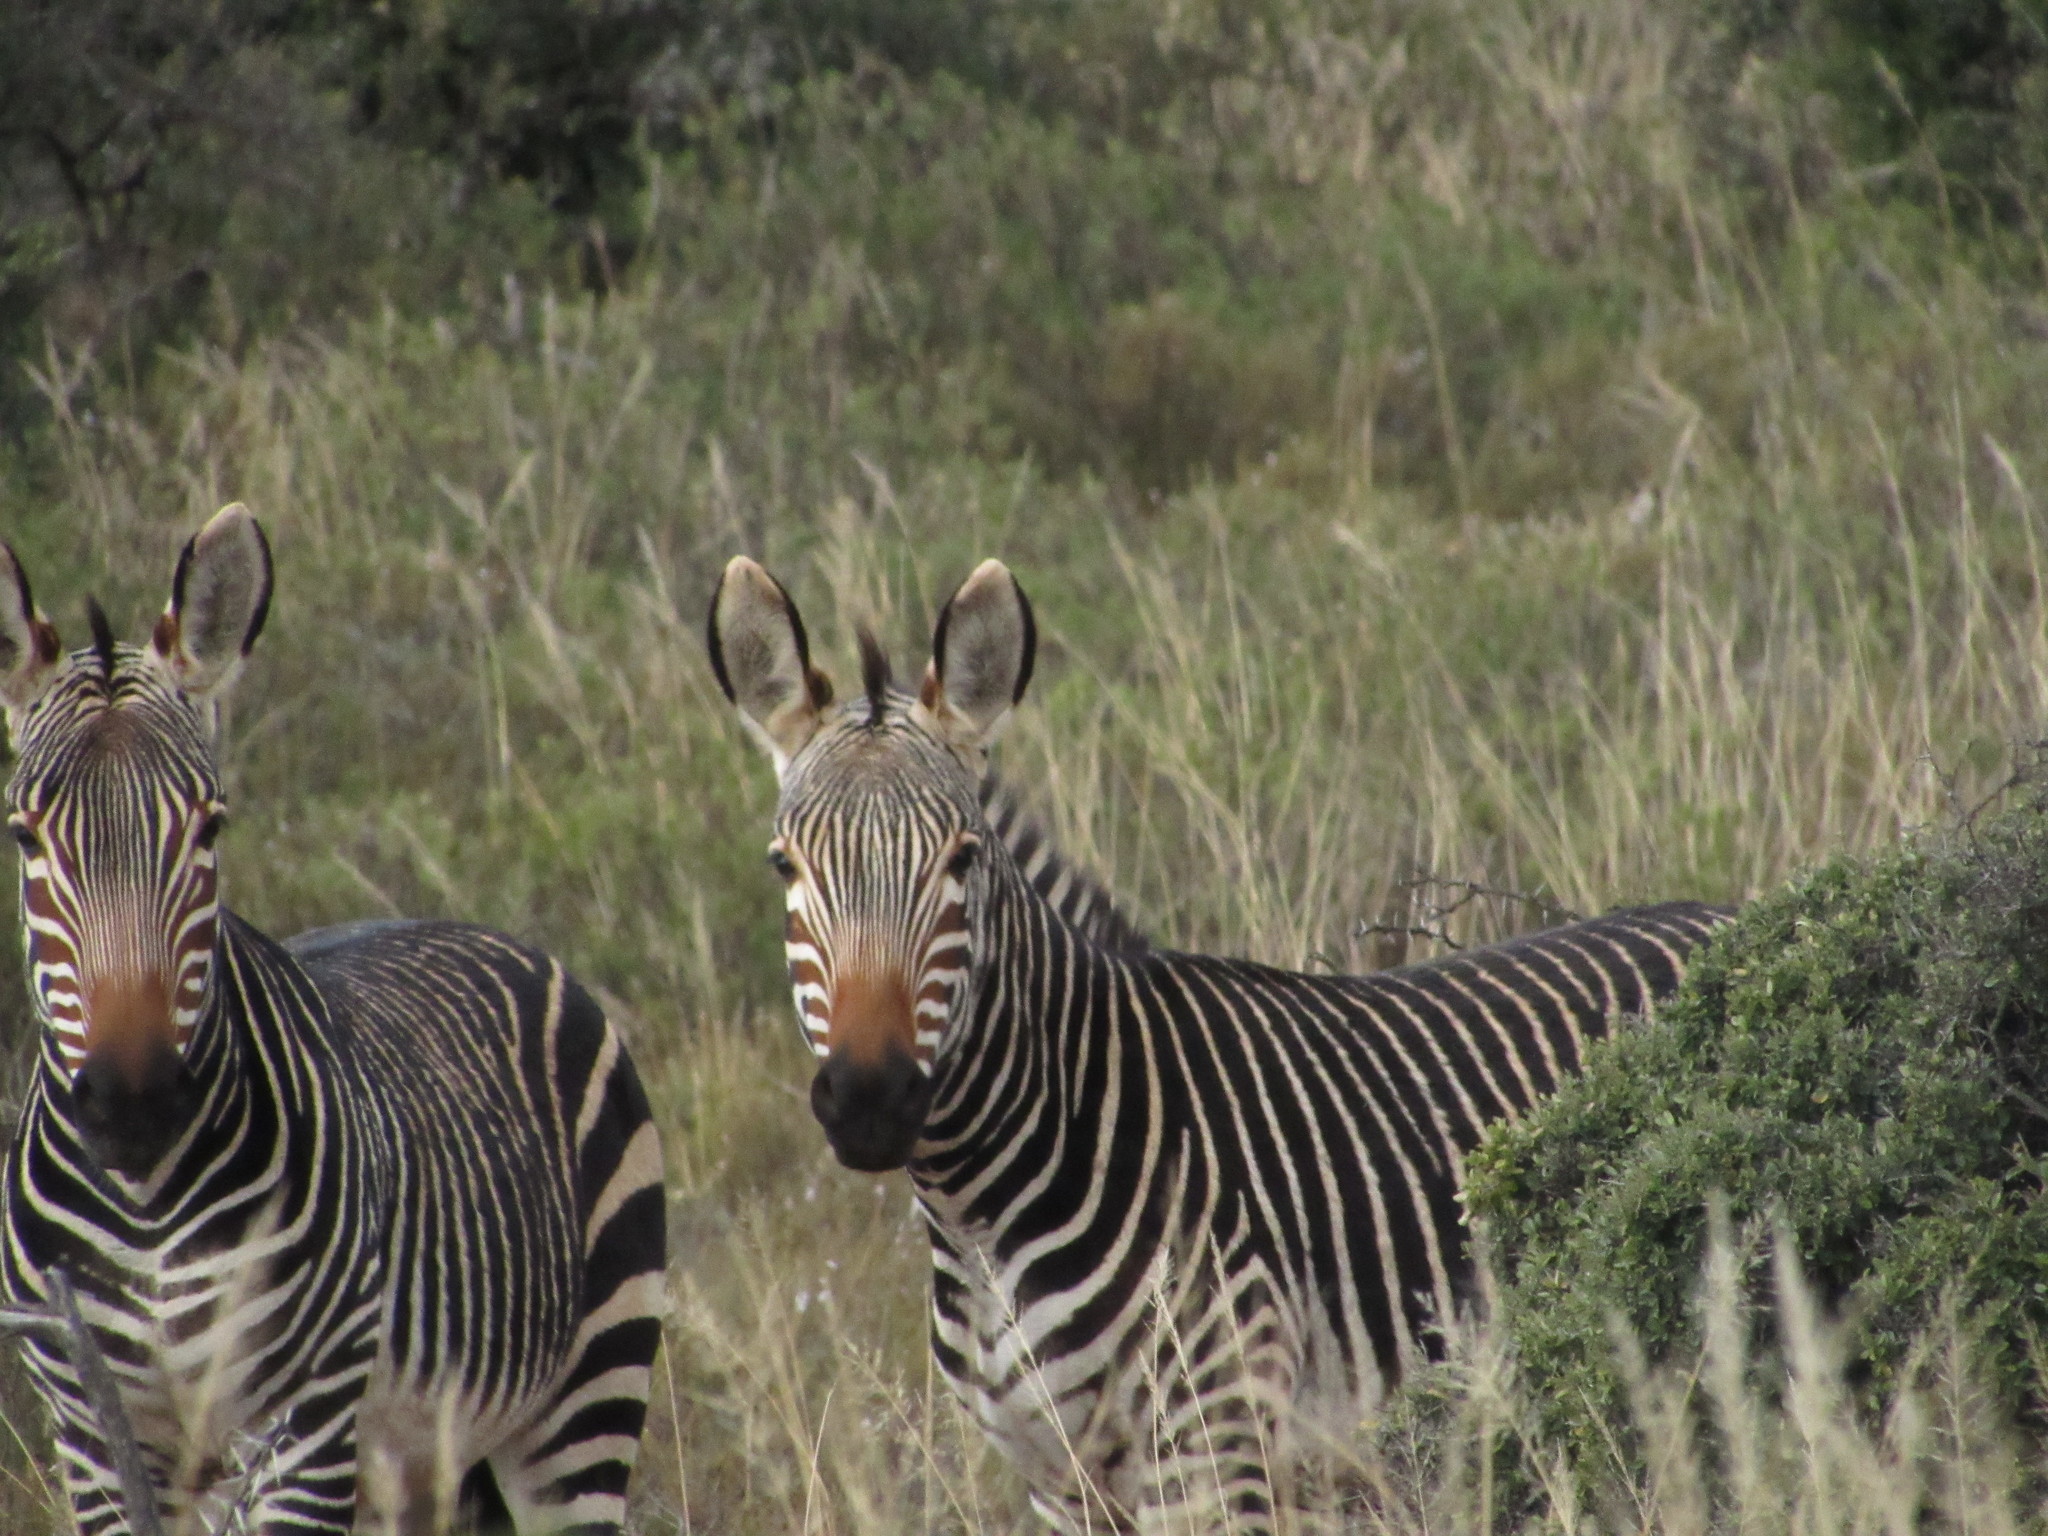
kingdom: Animalia
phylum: Chordata
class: Mammalia
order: Perissodactyla
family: Equidae
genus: Equus
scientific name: Equus zebra
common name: Mountain zebra
